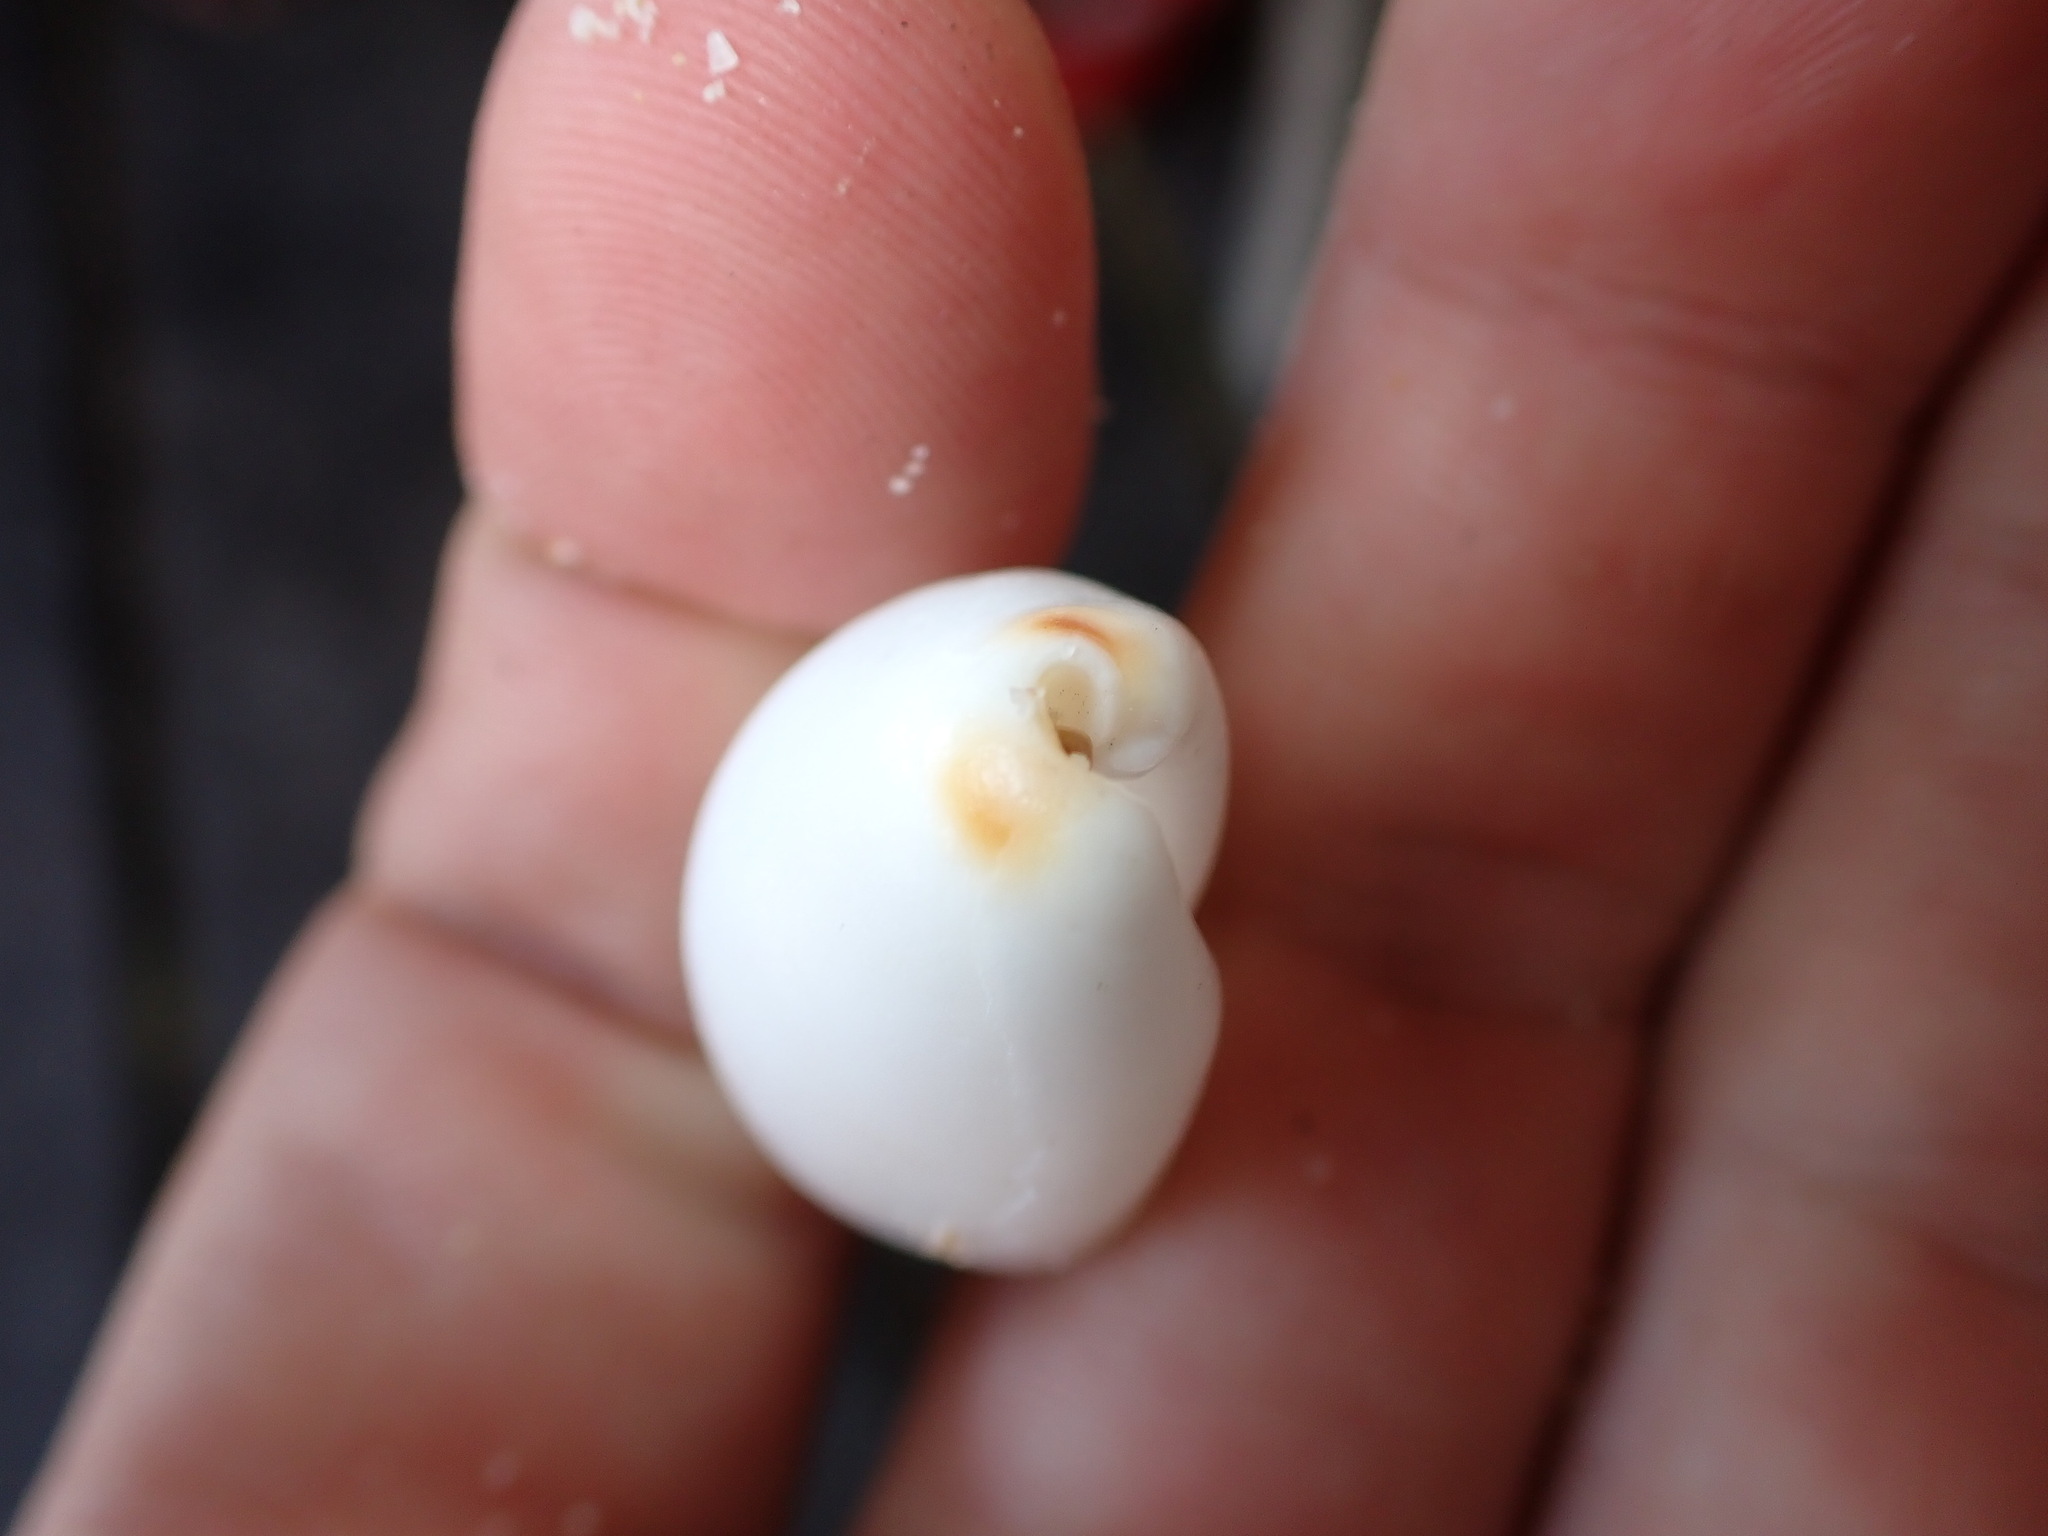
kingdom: Animalia
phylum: Mollusca
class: Gastropoda
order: Littorinimorpha
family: Cypraeidae
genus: Luria
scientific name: Luria isabella
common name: Isabell cowry
